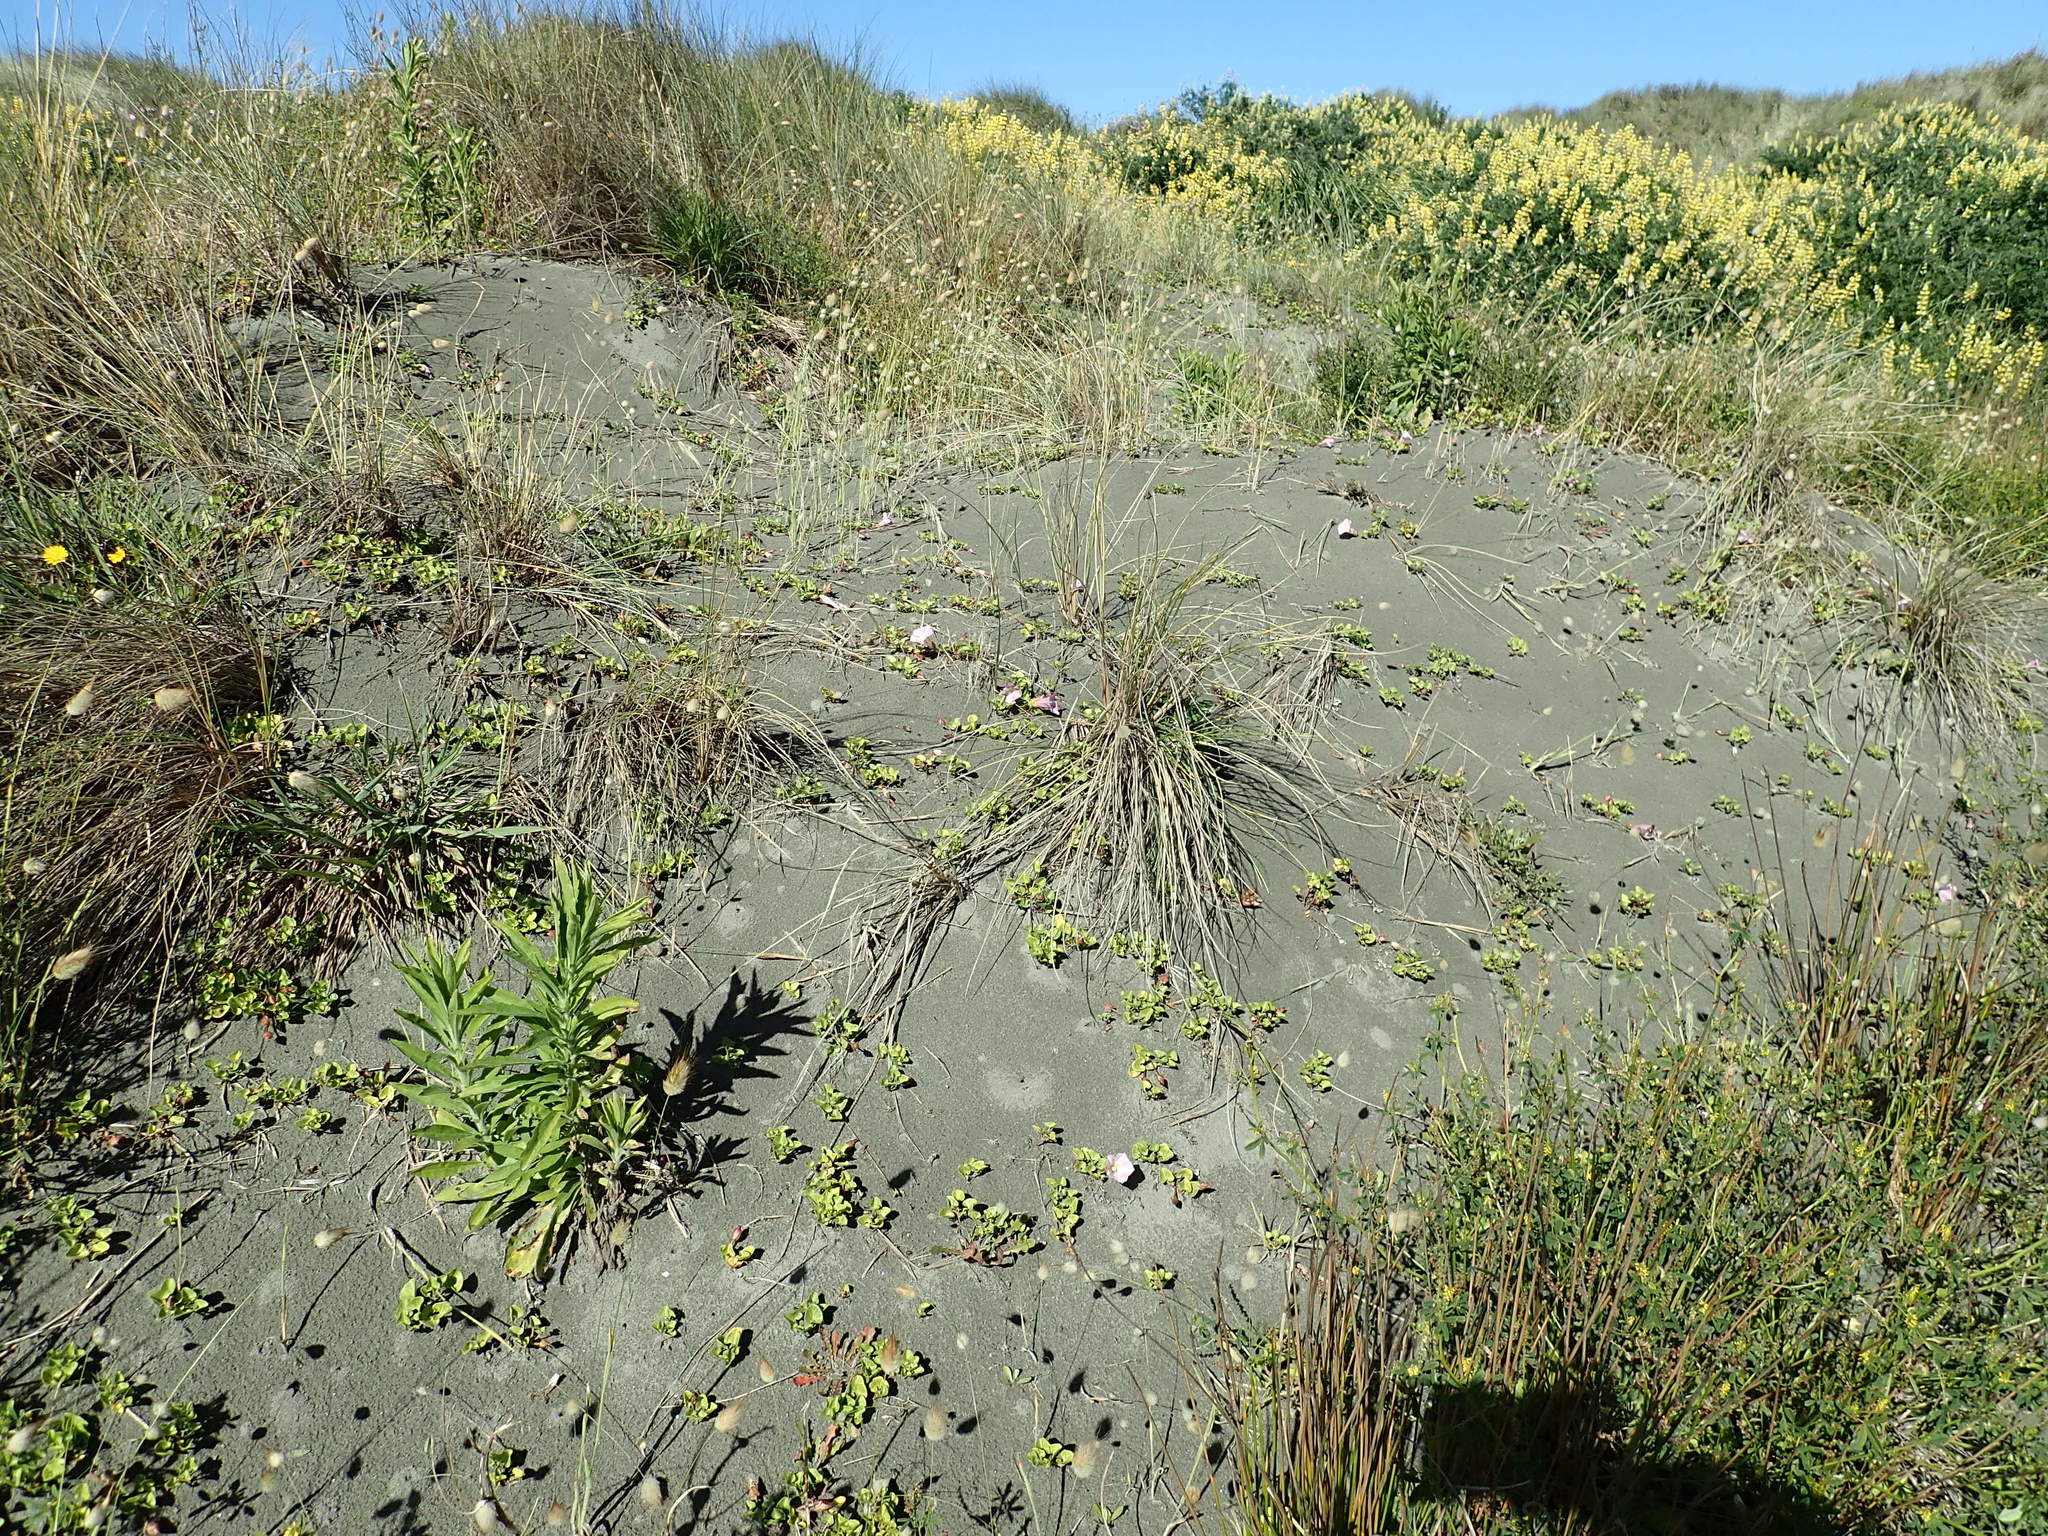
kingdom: Plantae
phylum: Tracheophyta
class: Magnoliopsida
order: Asterales
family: Asteraceae
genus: Erigeron
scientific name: Erigeron sumatrensis
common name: Daisy
